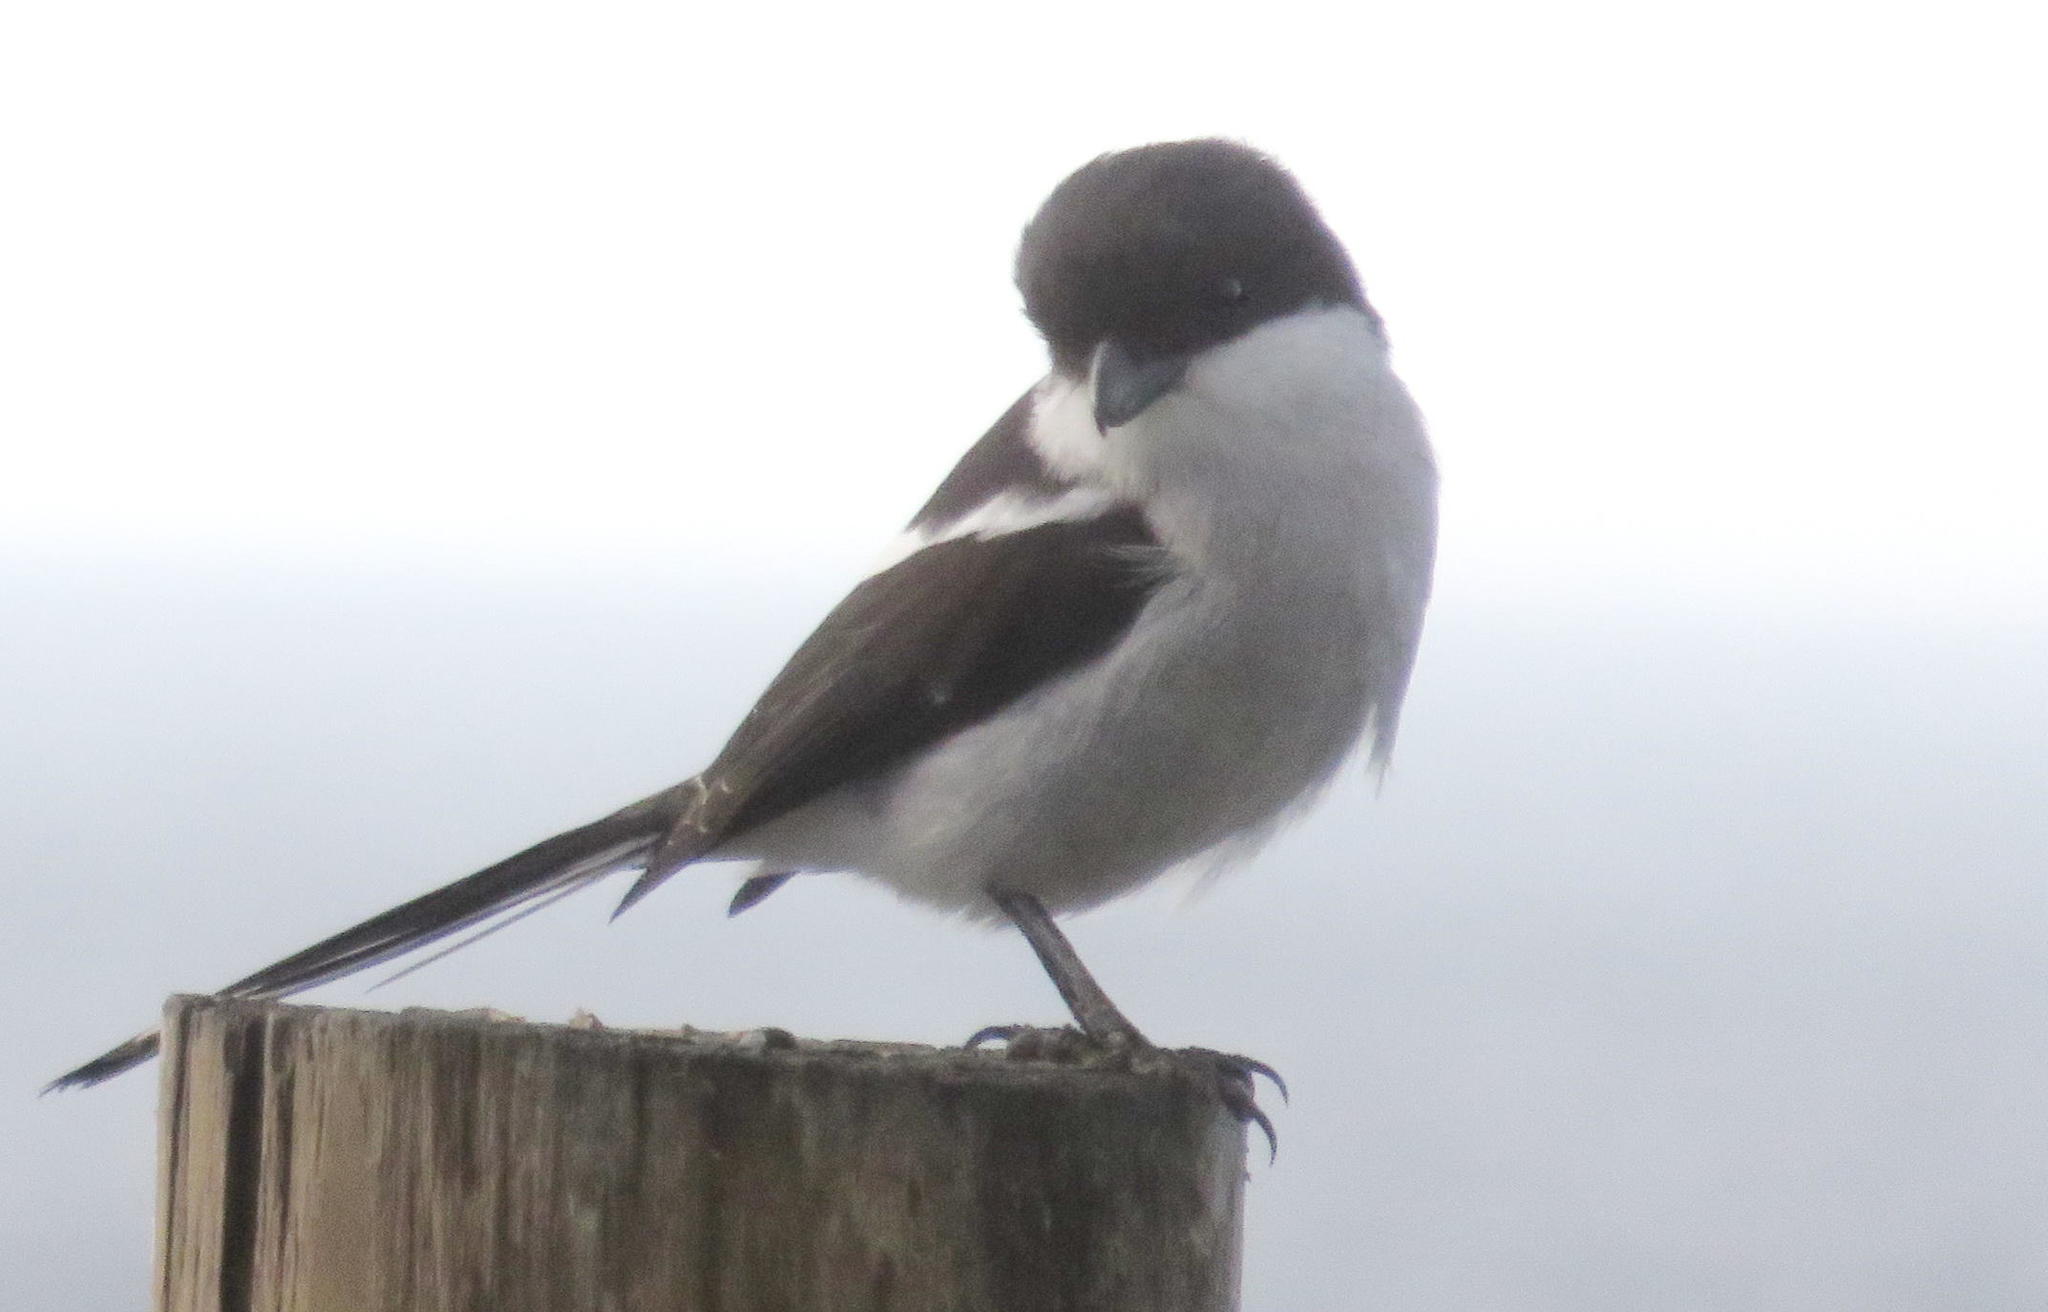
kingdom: Animalia
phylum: Chordata
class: Aves
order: Passeriformes
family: Laniidae
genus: Lanius
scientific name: Lanius collaris
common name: Southern fiscal
